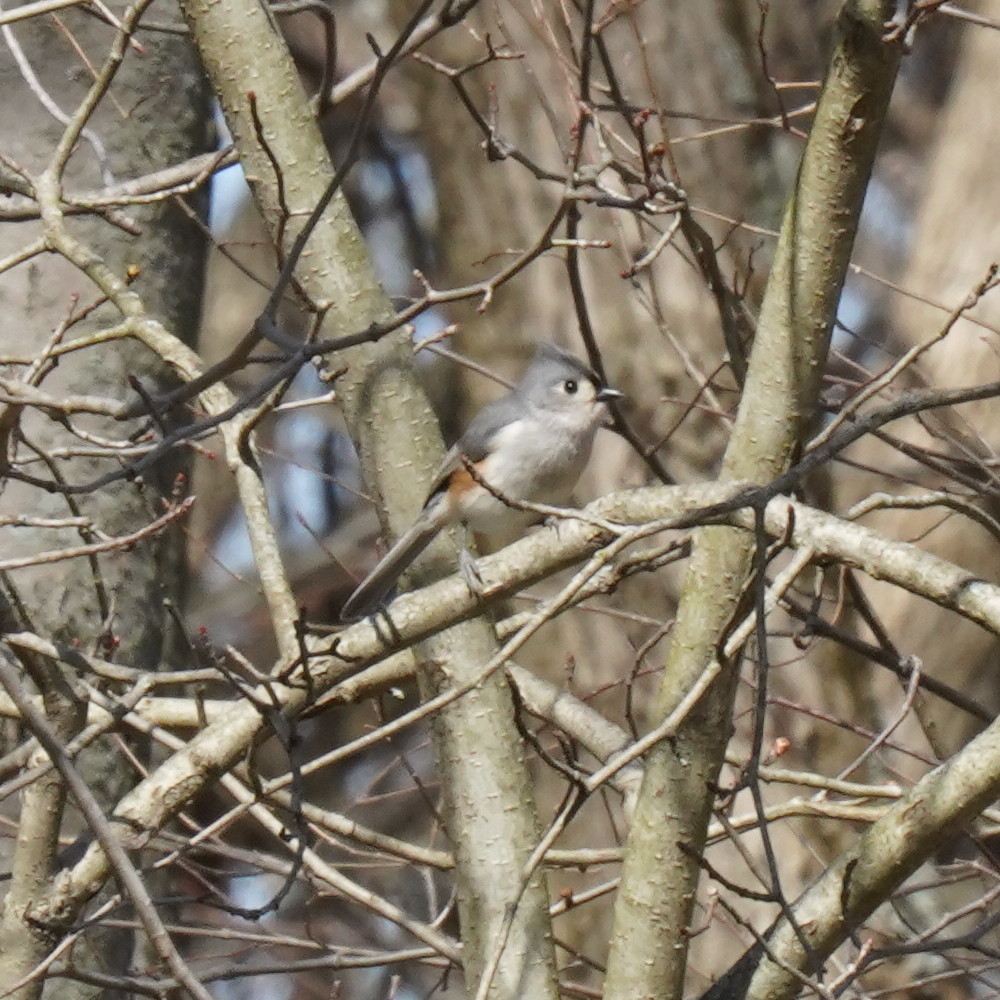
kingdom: Animalia
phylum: Chordata
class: Aves
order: Passeriformes
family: Paridae
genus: Baeolophus
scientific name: Baeolophus bicolor
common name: Tufted titmouse
